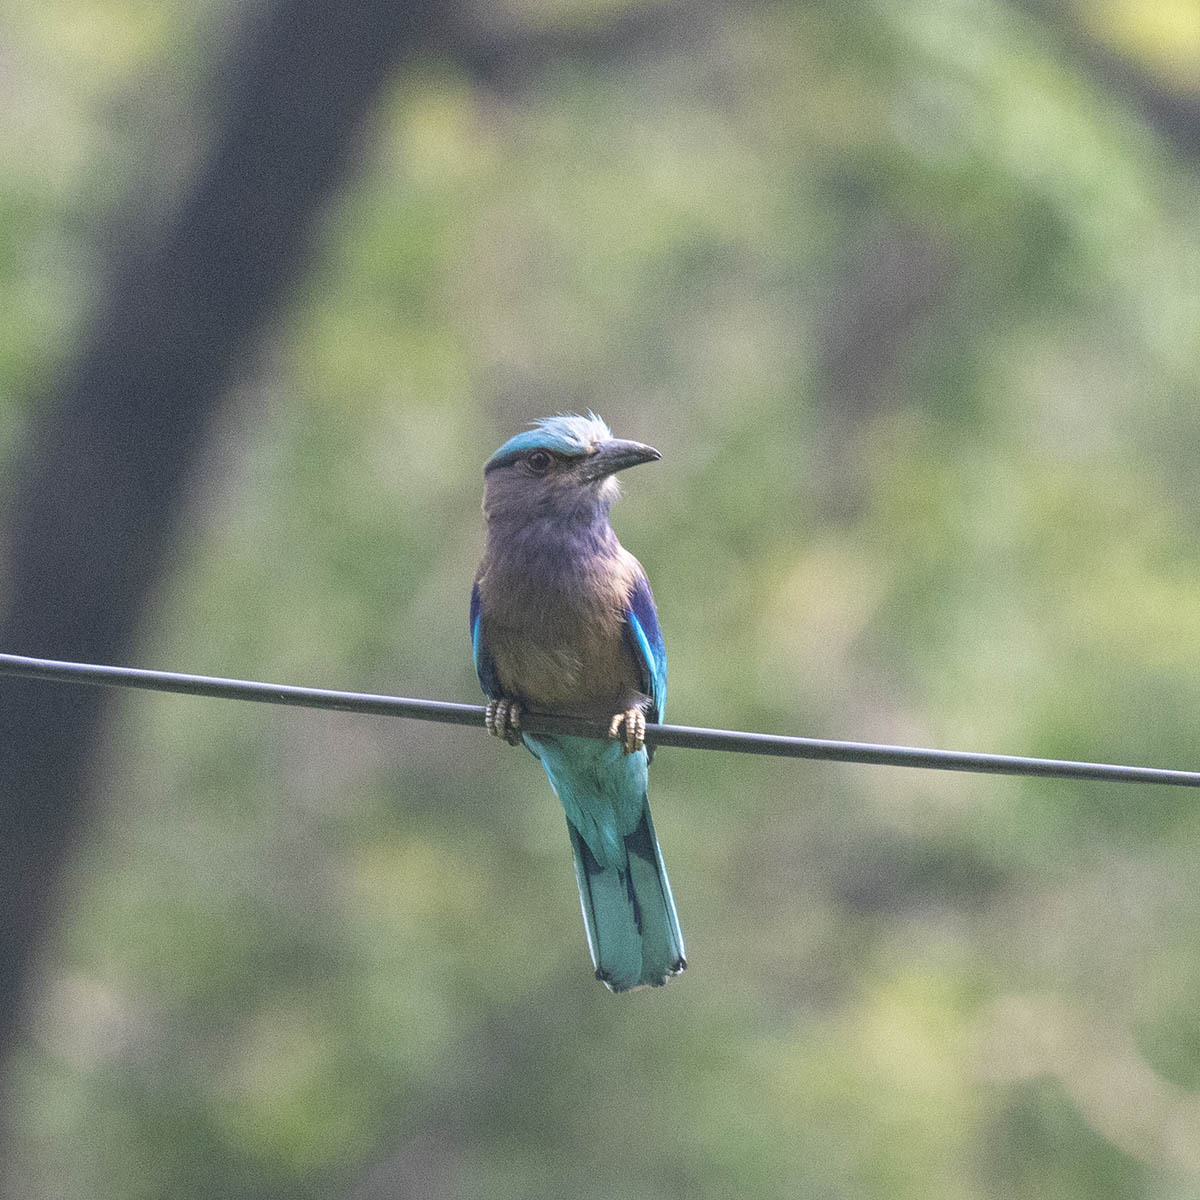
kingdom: Animalia
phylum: Chordata
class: Aves
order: Coraciiformes
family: Coraciidae
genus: Coracias
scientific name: Coracias affinis
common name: Indochinese roller
